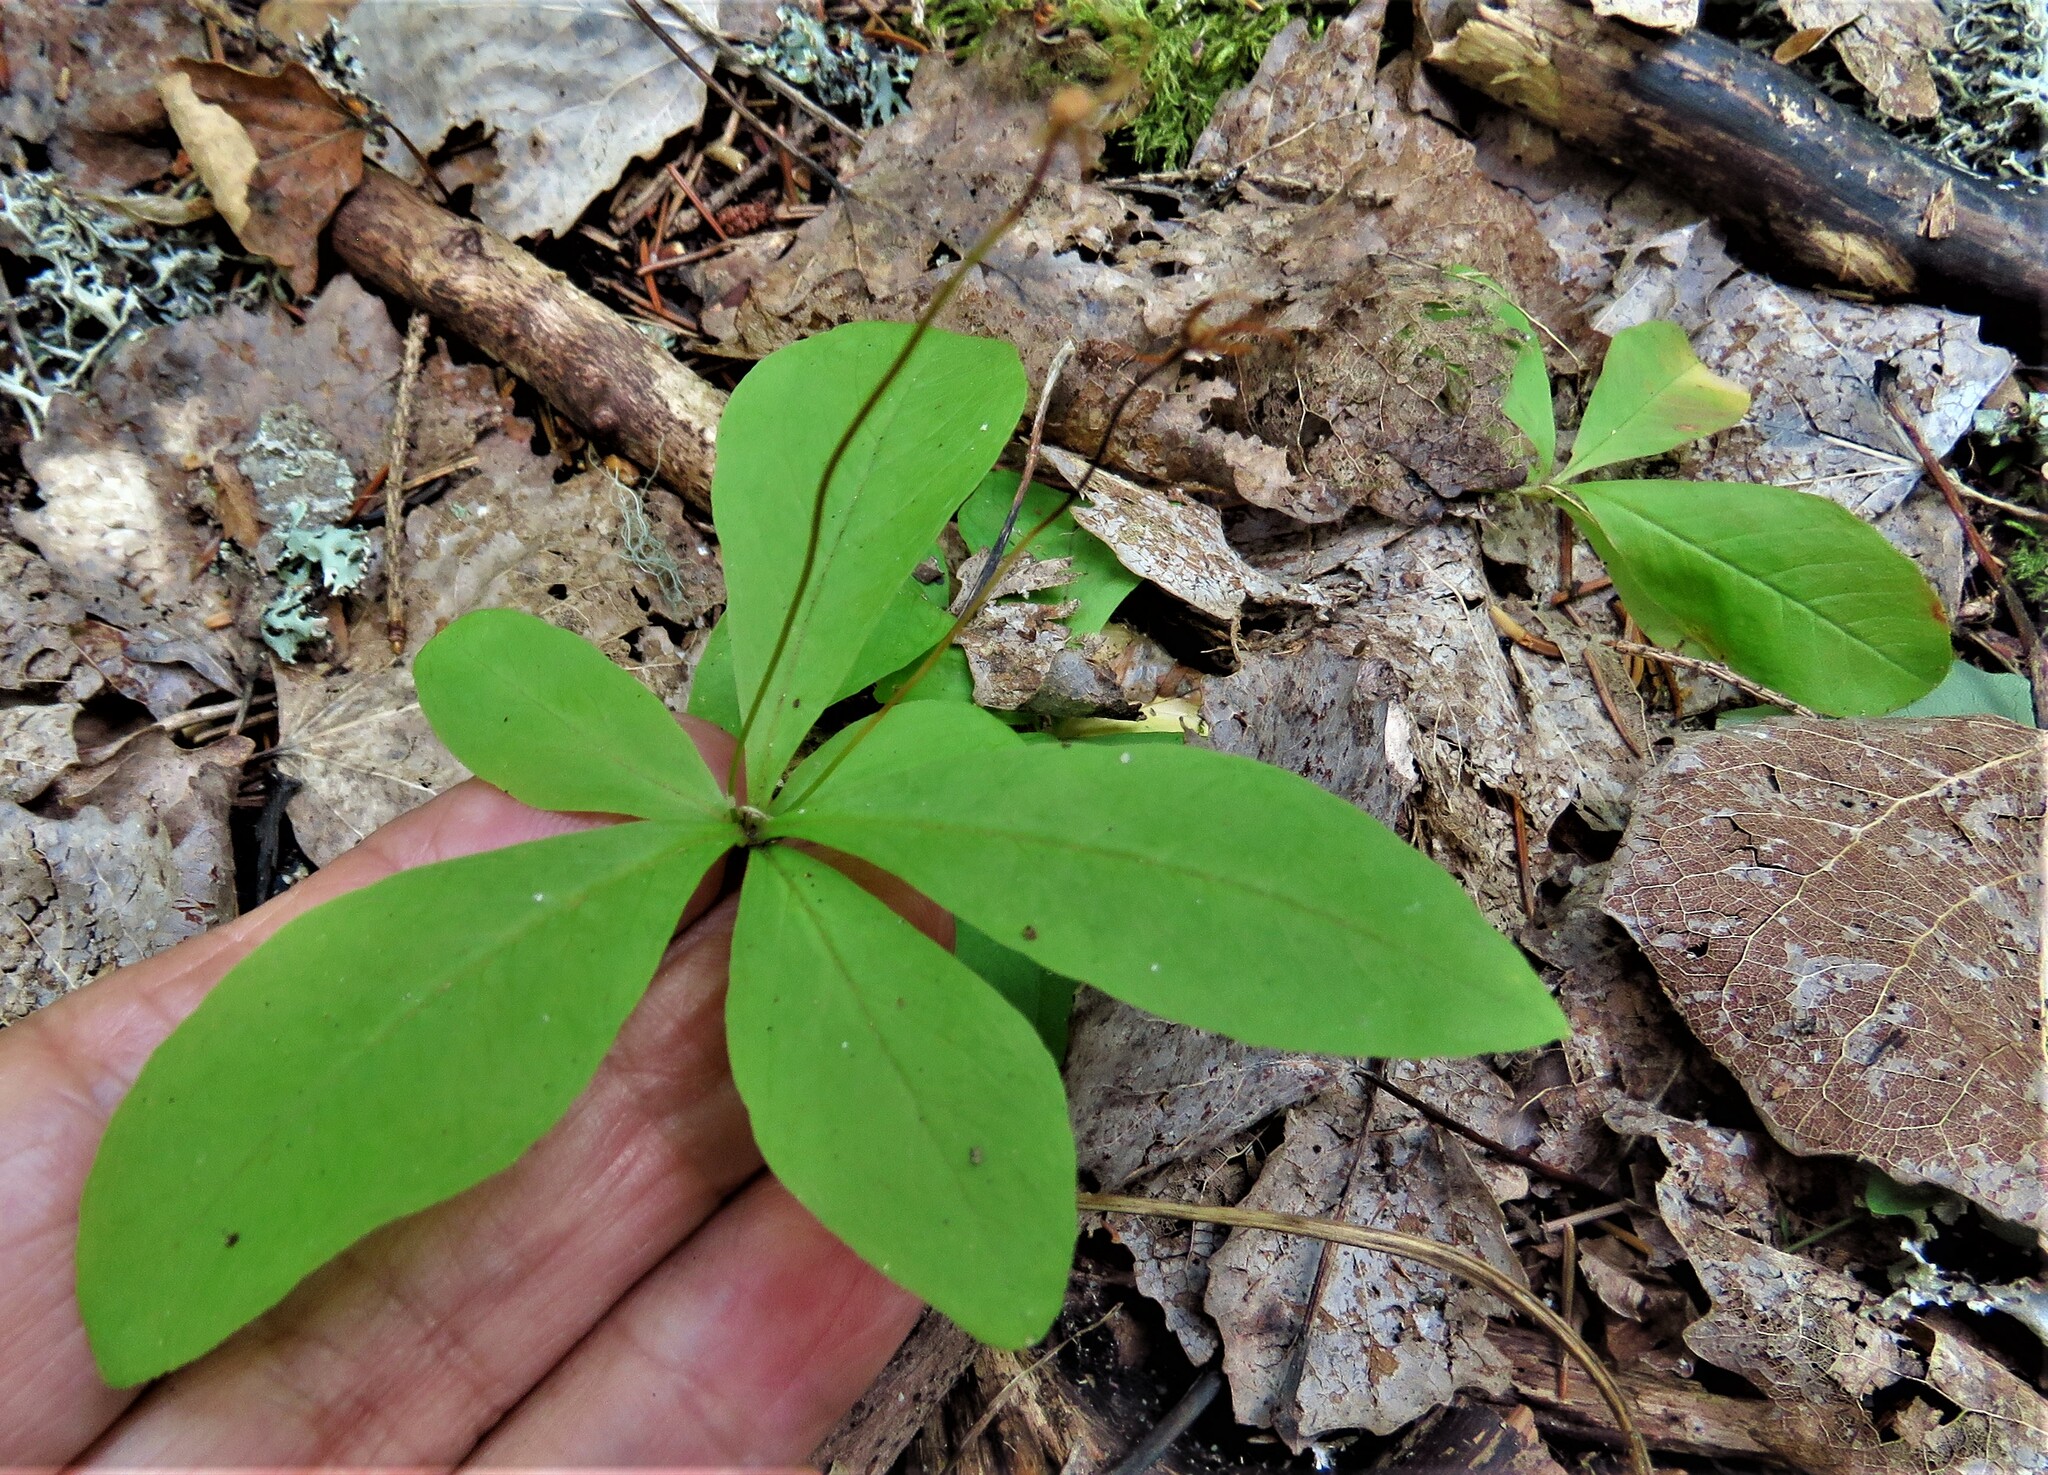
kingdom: Plantae
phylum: Tracheophyta
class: Magnoliopsida
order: Ericales
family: Primulaceae
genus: Lysimachia
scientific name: Lysimachia europaea
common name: Arctic starflower
